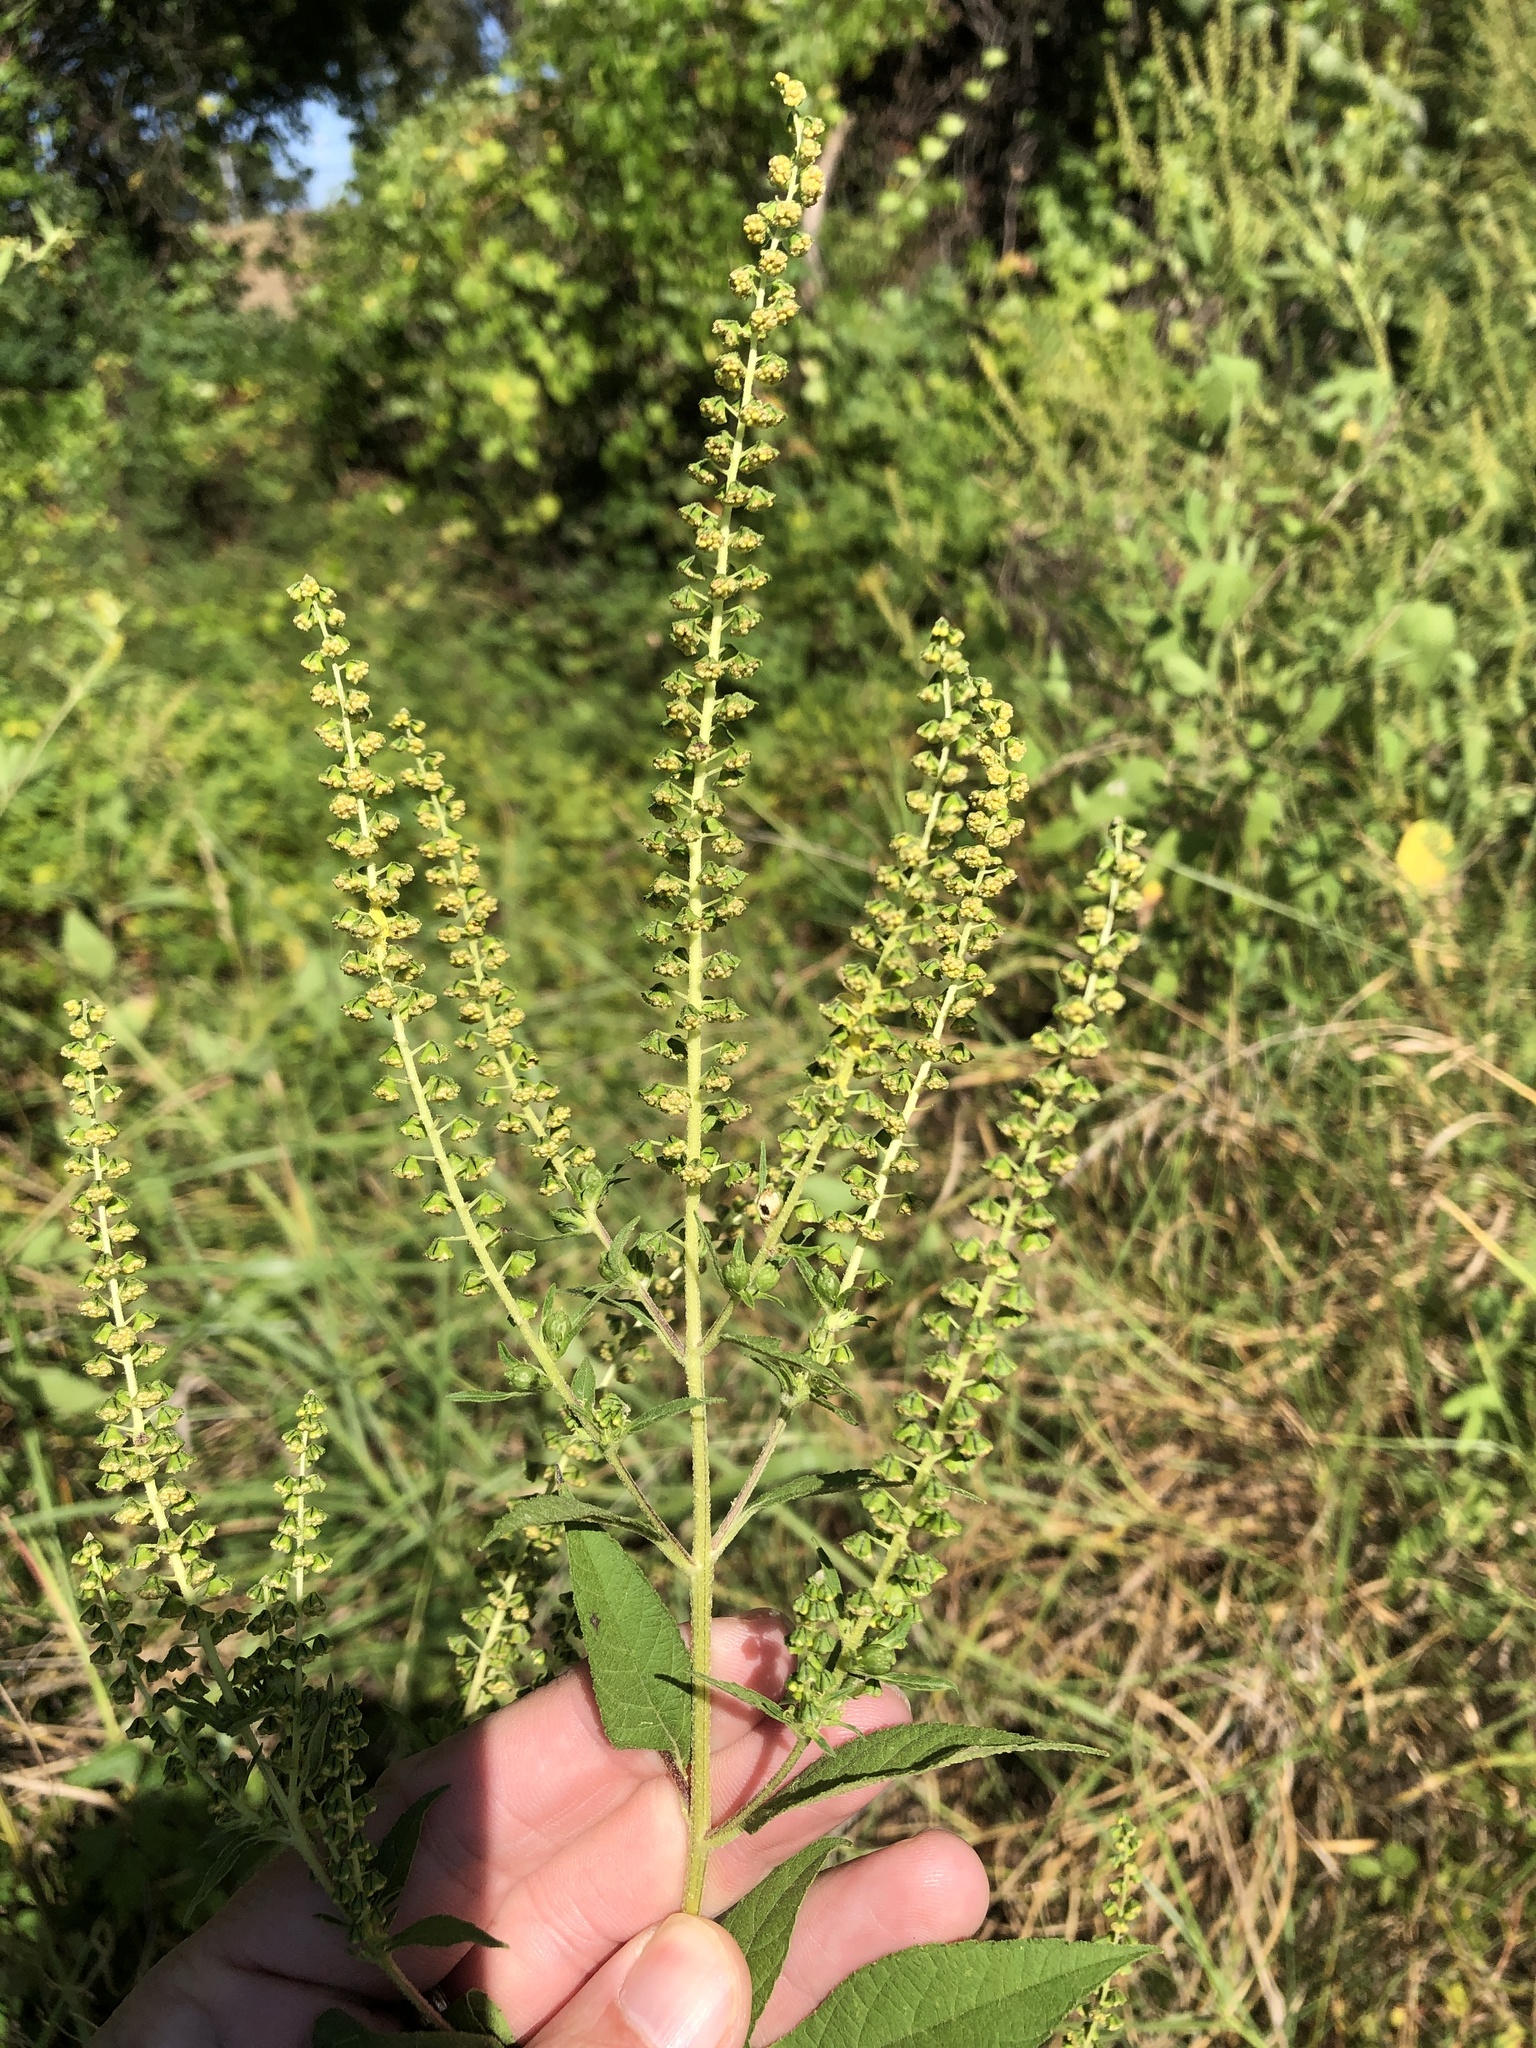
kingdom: Plantae
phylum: Tracheophyta
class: Magnoliopsida
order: Asterales
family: Asteraceae
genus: Ambrosia
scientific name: Ambrosia trifida
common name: Giant ragweed
